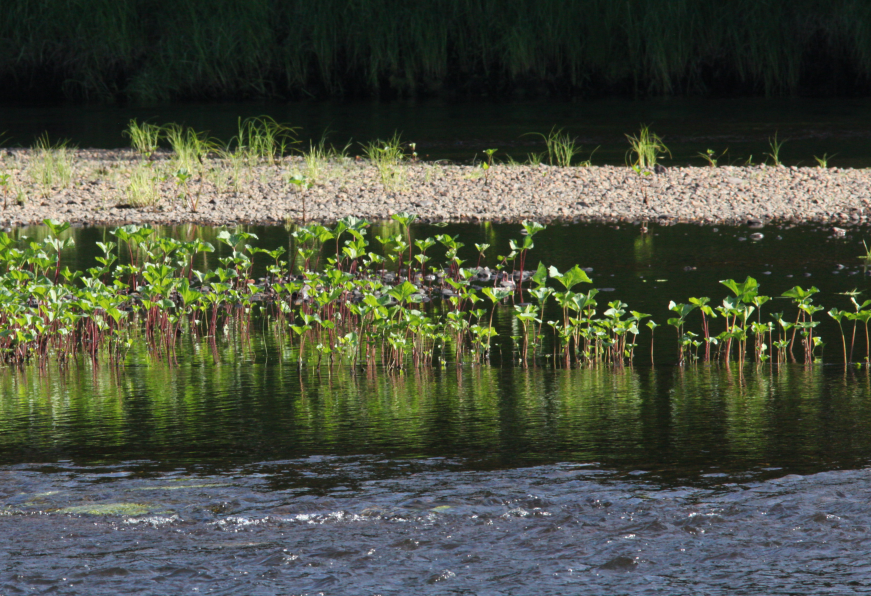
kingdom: Plantae
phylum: Tracheophyta
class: Magnoliopsida
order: Asterales
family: Asteraceae
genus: Petasites
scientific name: Petasites radiatus
